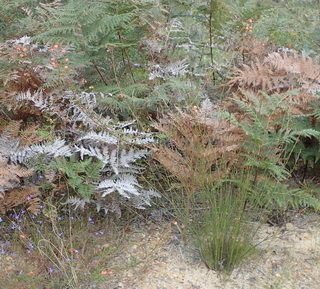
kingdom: Plantae
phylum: Tracheophyta
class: Magnoliopsida
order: Malvales
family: Malvaceae
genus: Hermannia
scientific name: Hermannia angularis
